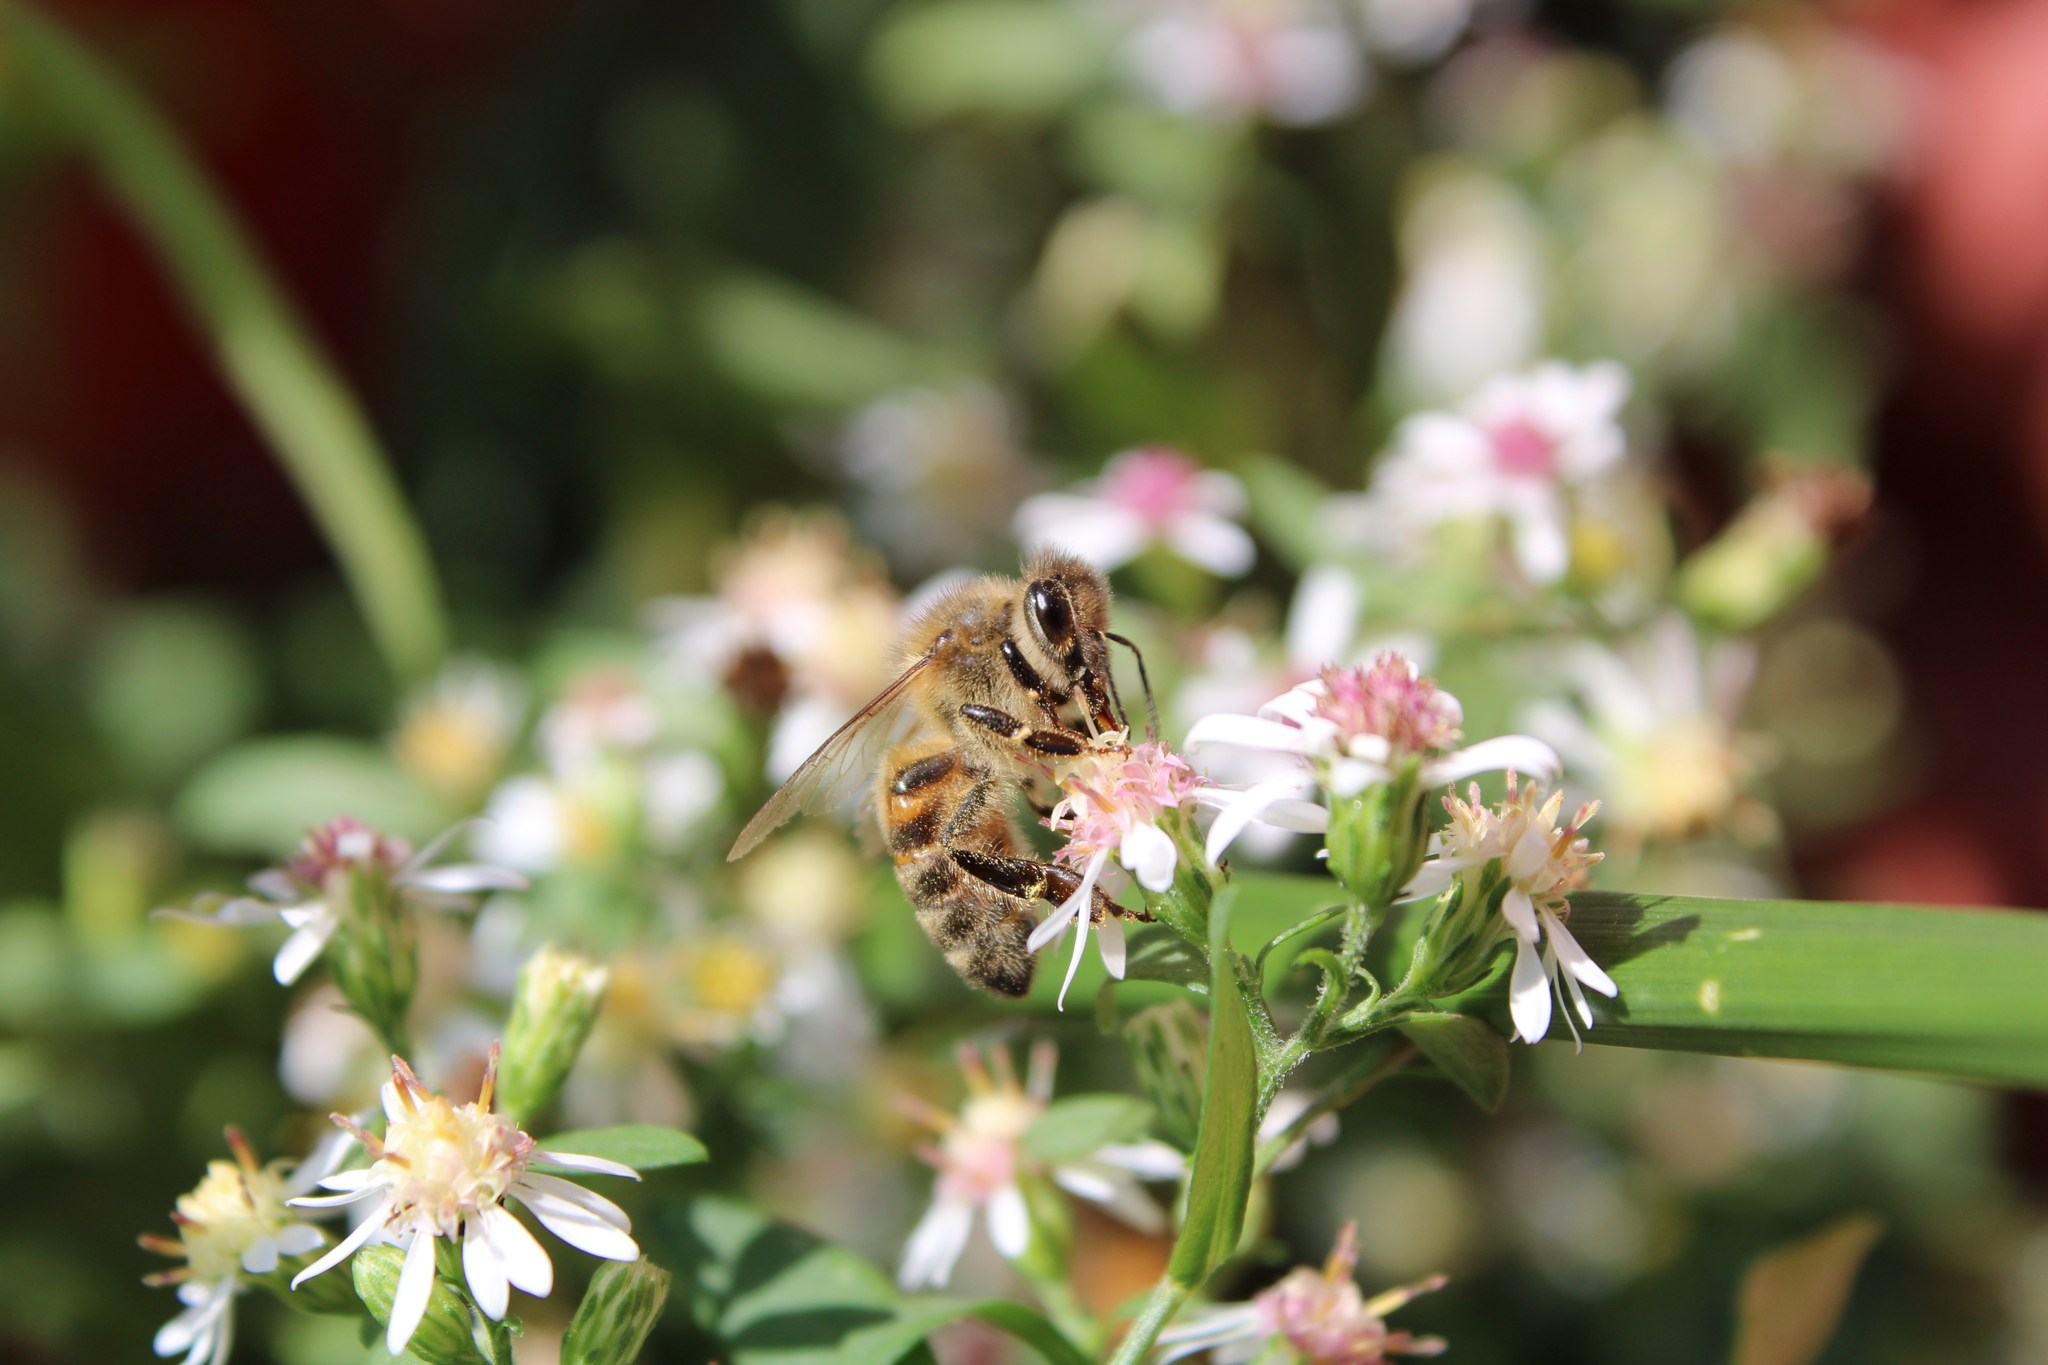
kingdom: Animalia
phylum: Arthropoda
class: Insecta
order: Hymenoptera
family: Apidae
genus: Apis
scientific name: Apis mellifera
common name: Honey bee
